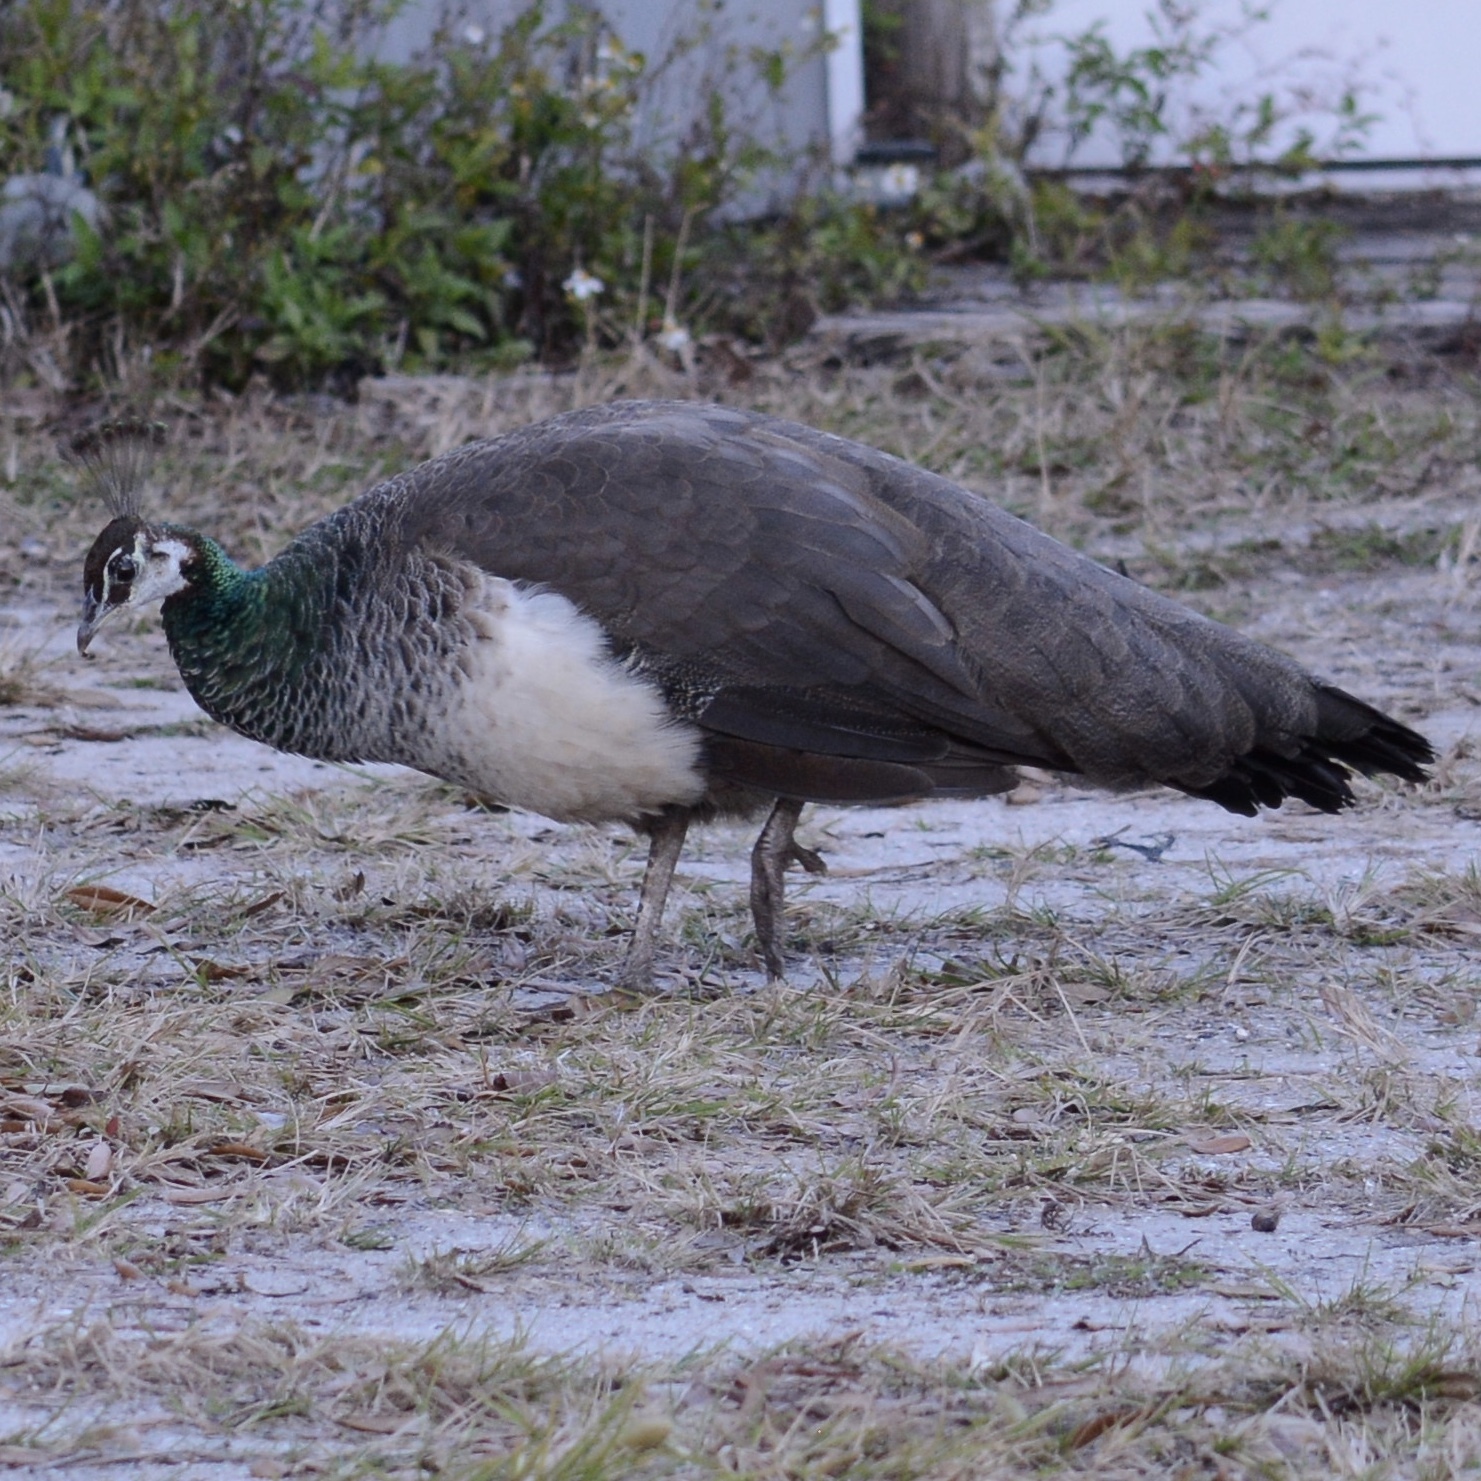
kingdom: Animalia
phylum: Chordata
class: Aves
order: Galliformes
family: Phasianidae
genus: Pavo
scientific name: Pavo cristatus
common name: Indian peafowl
